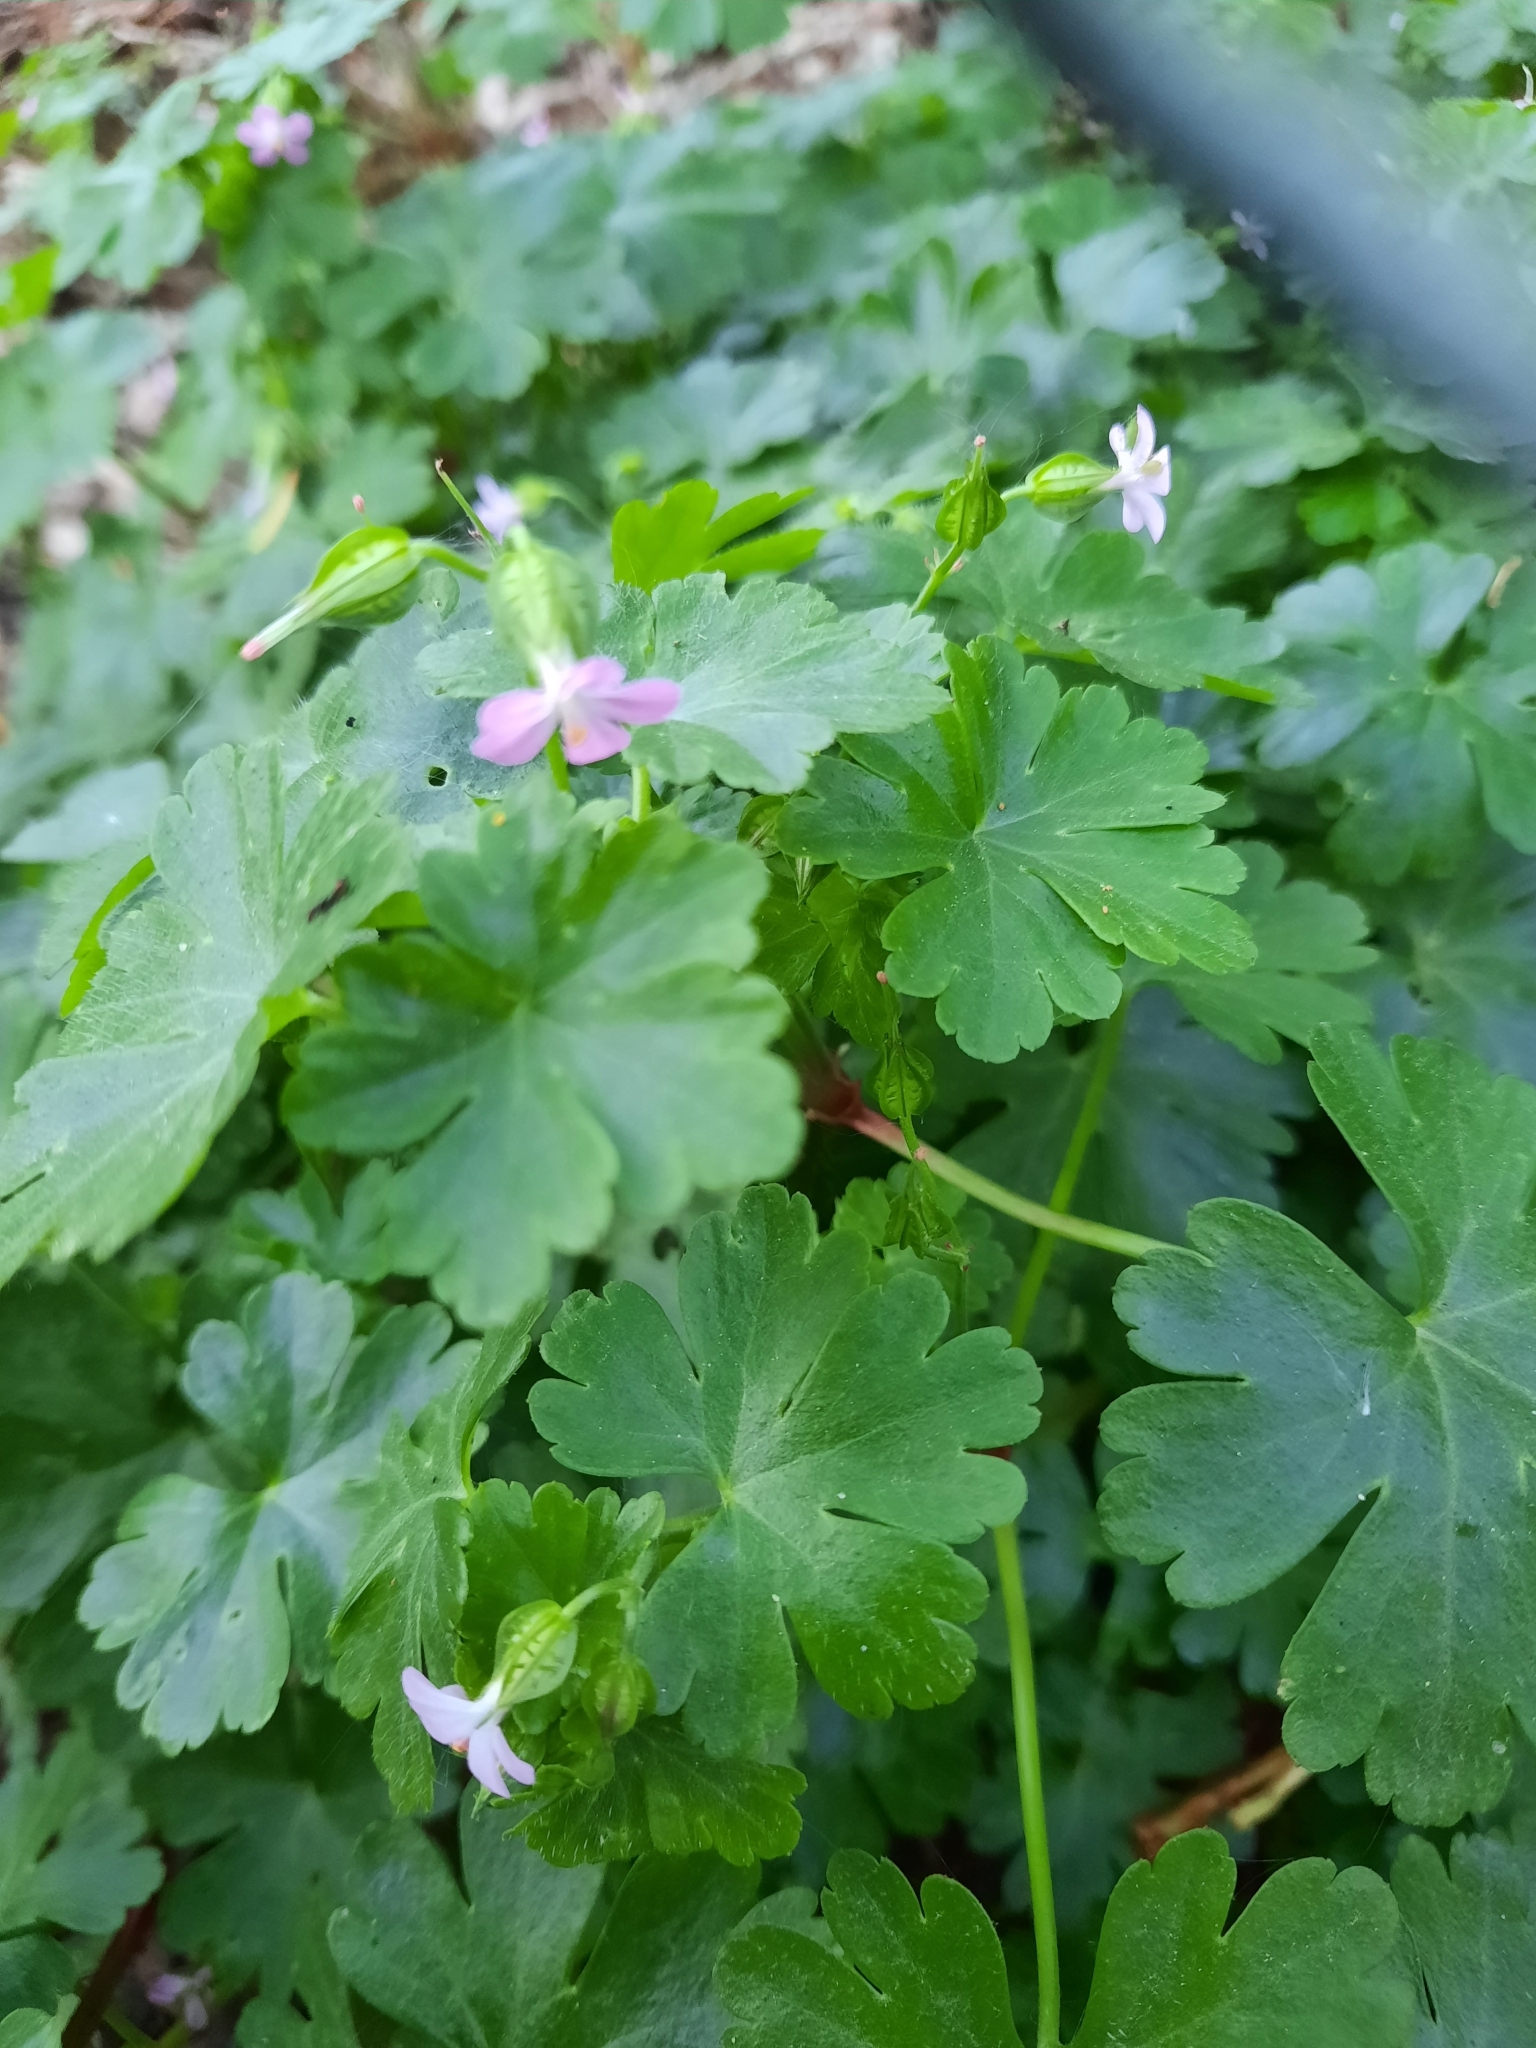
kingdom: Plantae
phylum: Tracheophyta
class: Magnoliopsida
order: Geraniales
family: Geraniaceae
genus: Geranium
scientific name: Geranium lucidum
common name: Shining crane's-bill
